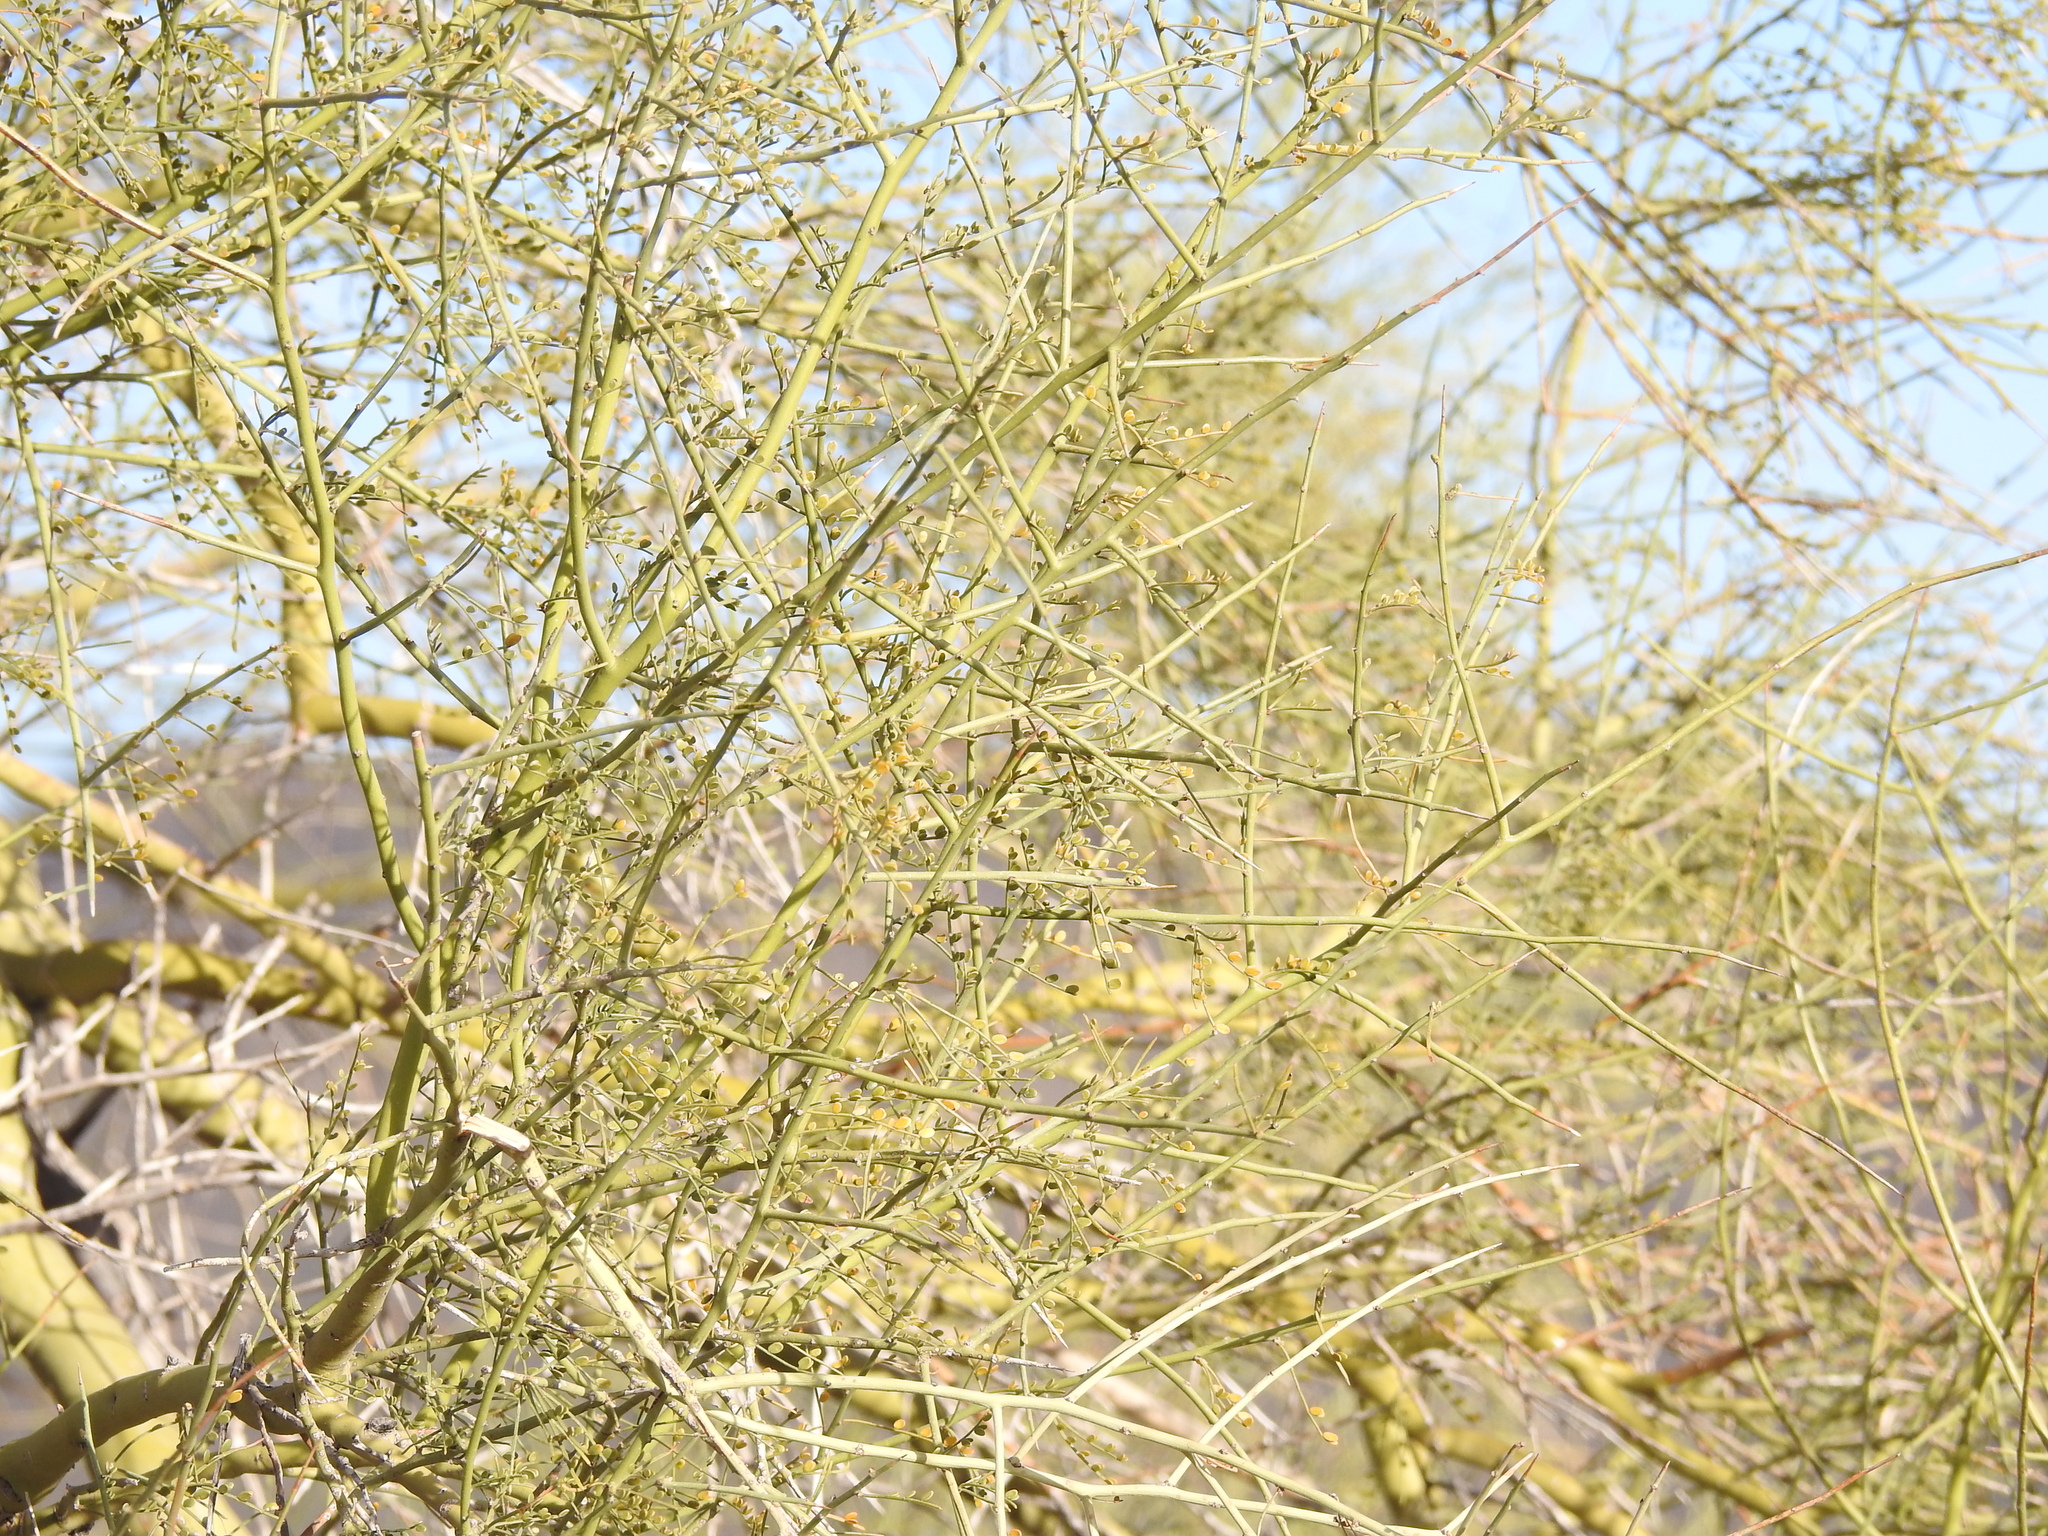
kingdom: Plantae
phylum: Tracheophyta
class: Magnoliopsida
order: Fabales
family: Fabaceae
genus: Parkinsonia
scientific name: Parkinsonia microphylla
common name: Yellow paloverde
